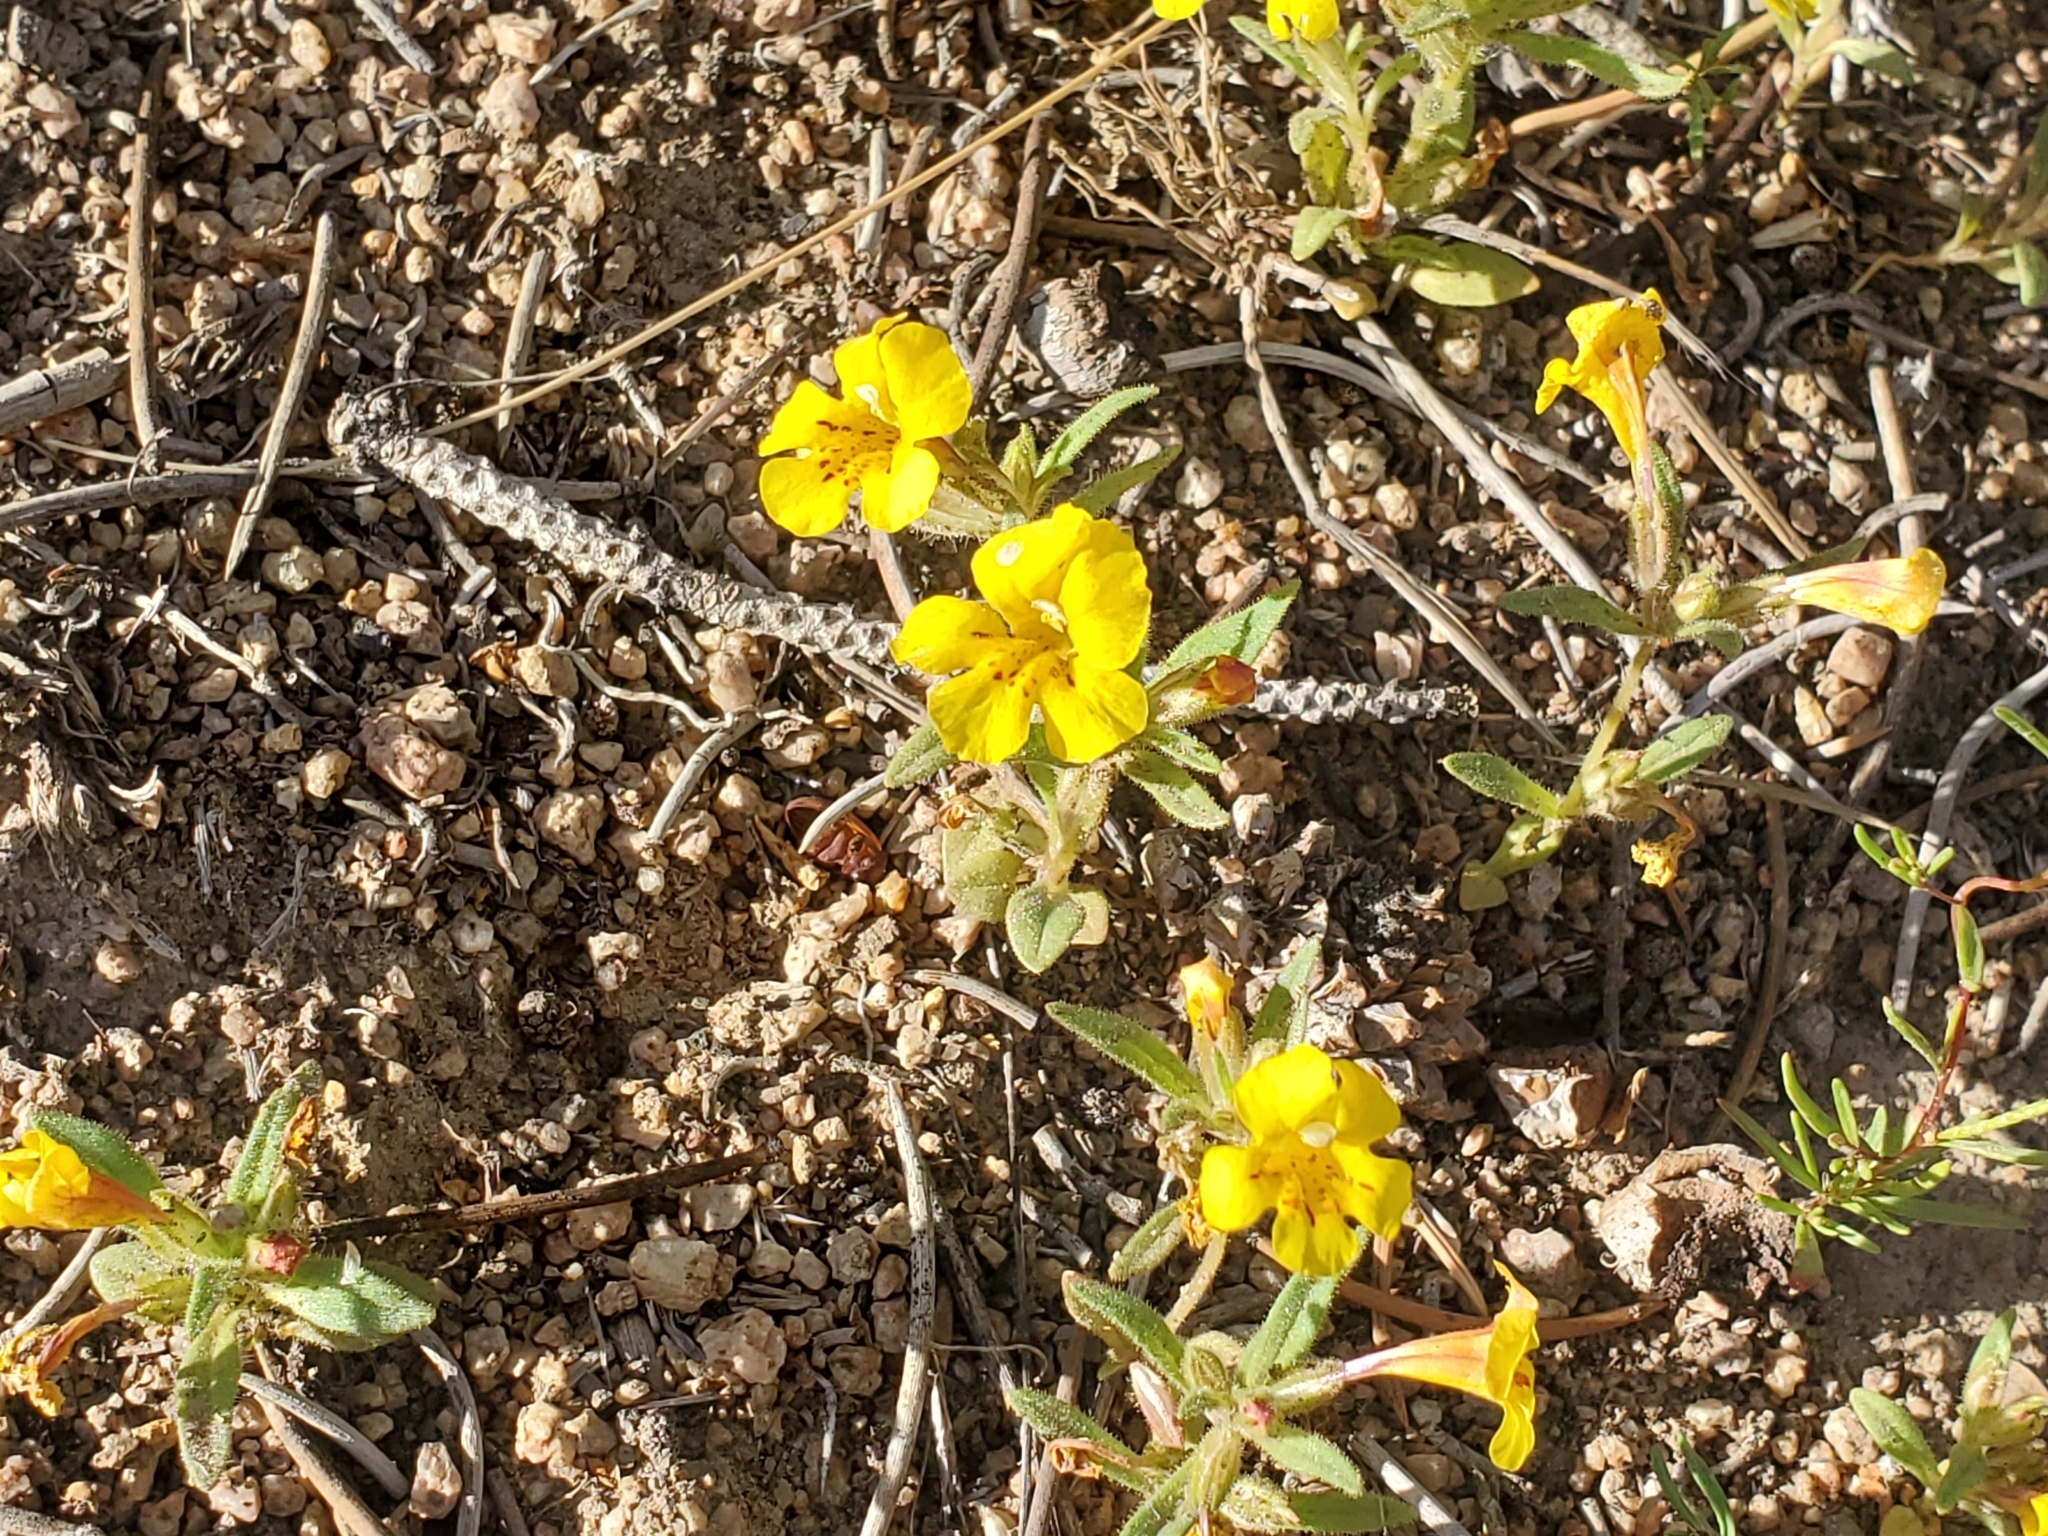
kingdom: Plantae
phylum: Tracheophyta
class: Magnoliopsida
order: Lamiales
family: Phrymaceae
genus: Diplacus
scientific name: Diplacus mephiticus
